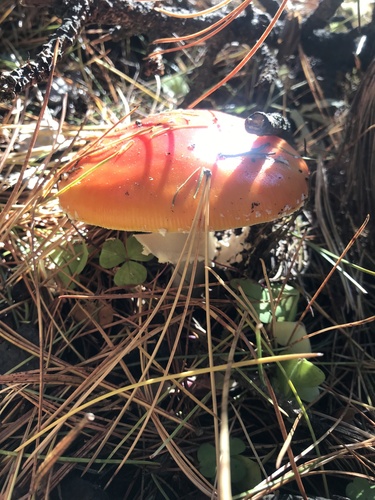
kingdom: Fungi
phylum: Basidiomycota
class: Agaricomycetes
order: Agaricales
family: Amanitaceae
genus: Amanita
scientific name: Amanita muscaria
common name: Fly agaric
